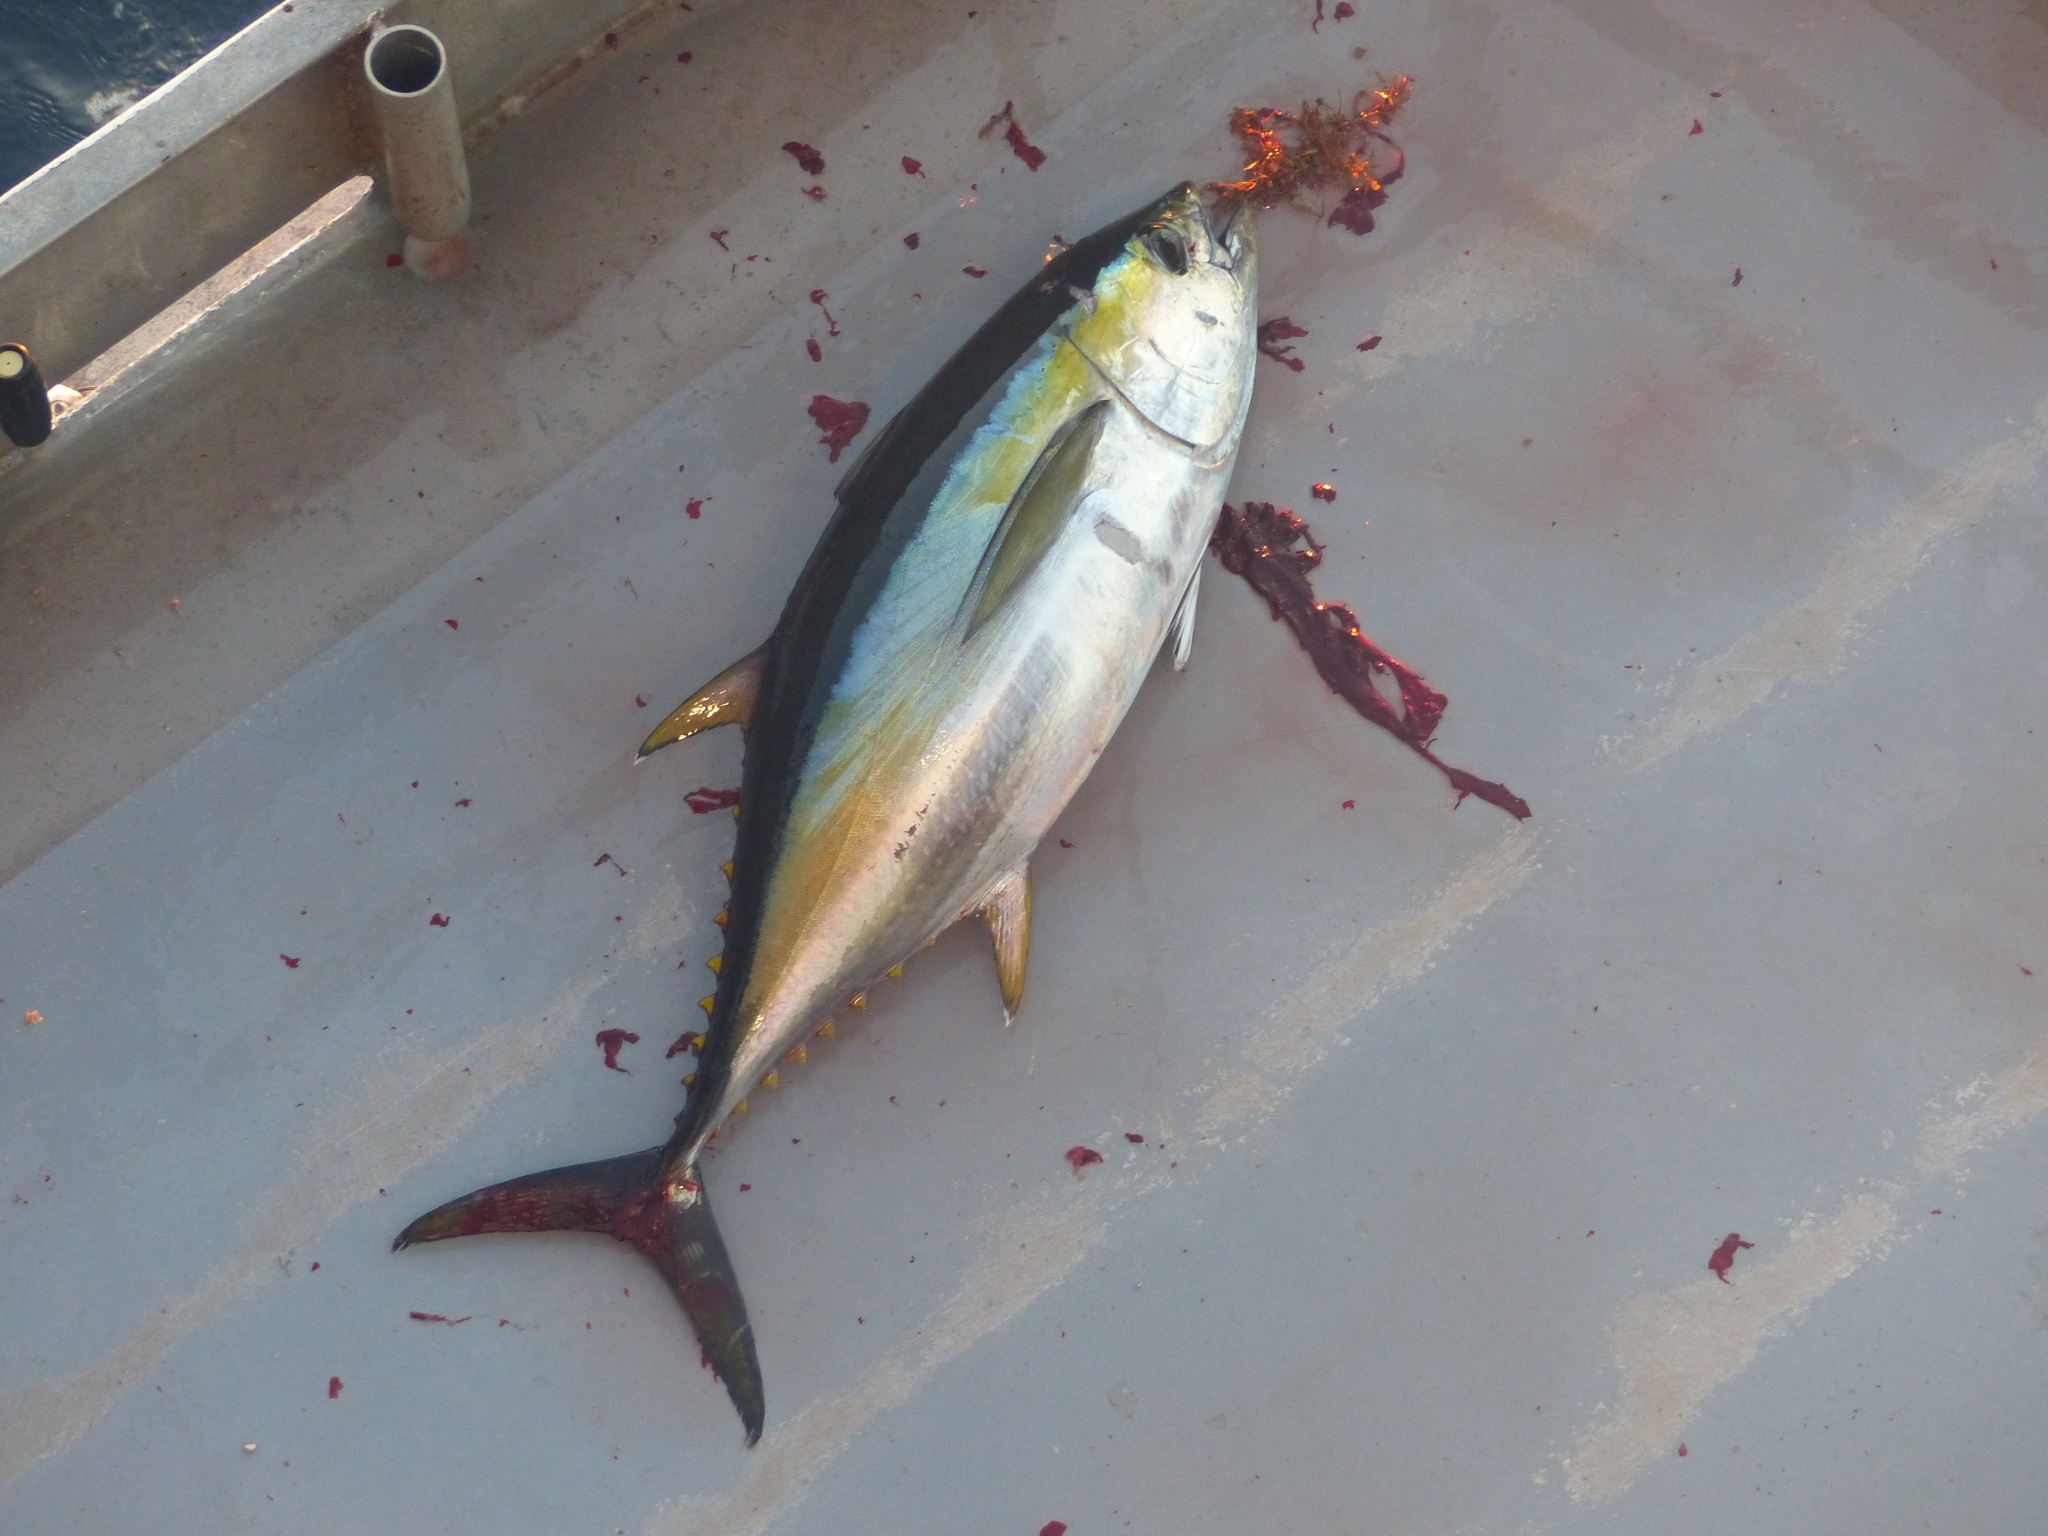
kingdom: Animalia
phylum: Chordata
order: Perciformes
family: Scombridae
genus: Thunnus
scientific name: Thunnus albacares
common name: Yellowfin tuna
